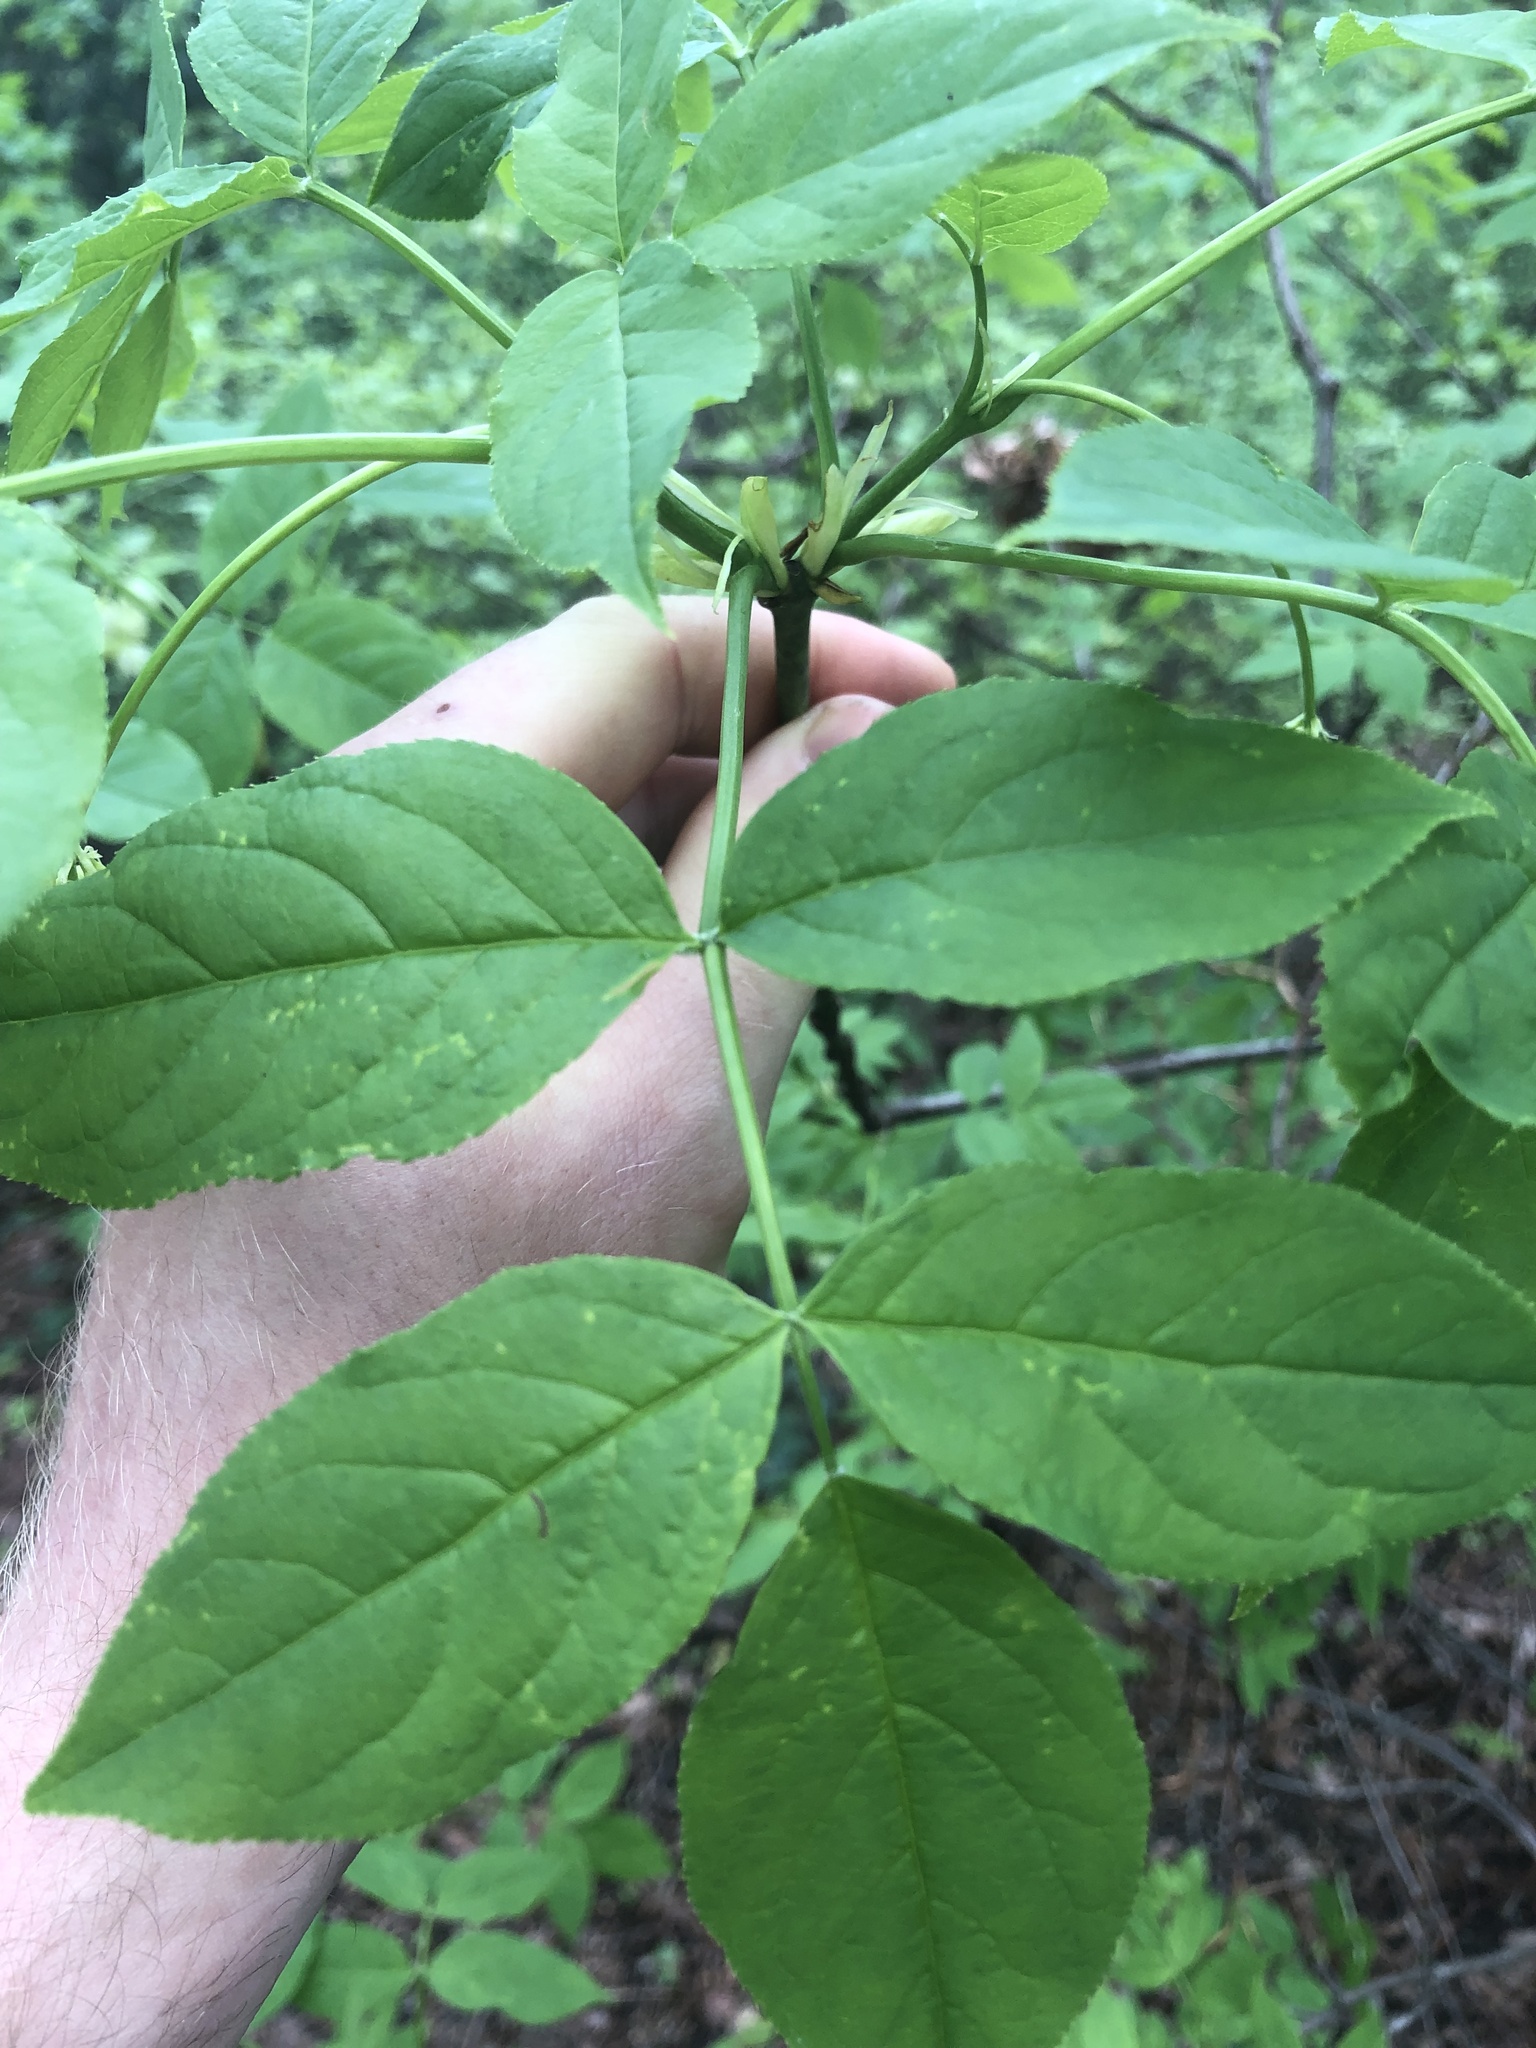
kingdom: Plantae
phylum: Tracheophyta
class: Magnoliopsida
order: Crossosomatales
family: Staphyleaceae
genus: Staphylea
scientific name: Staphylea pinnata
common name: Bladdernut
